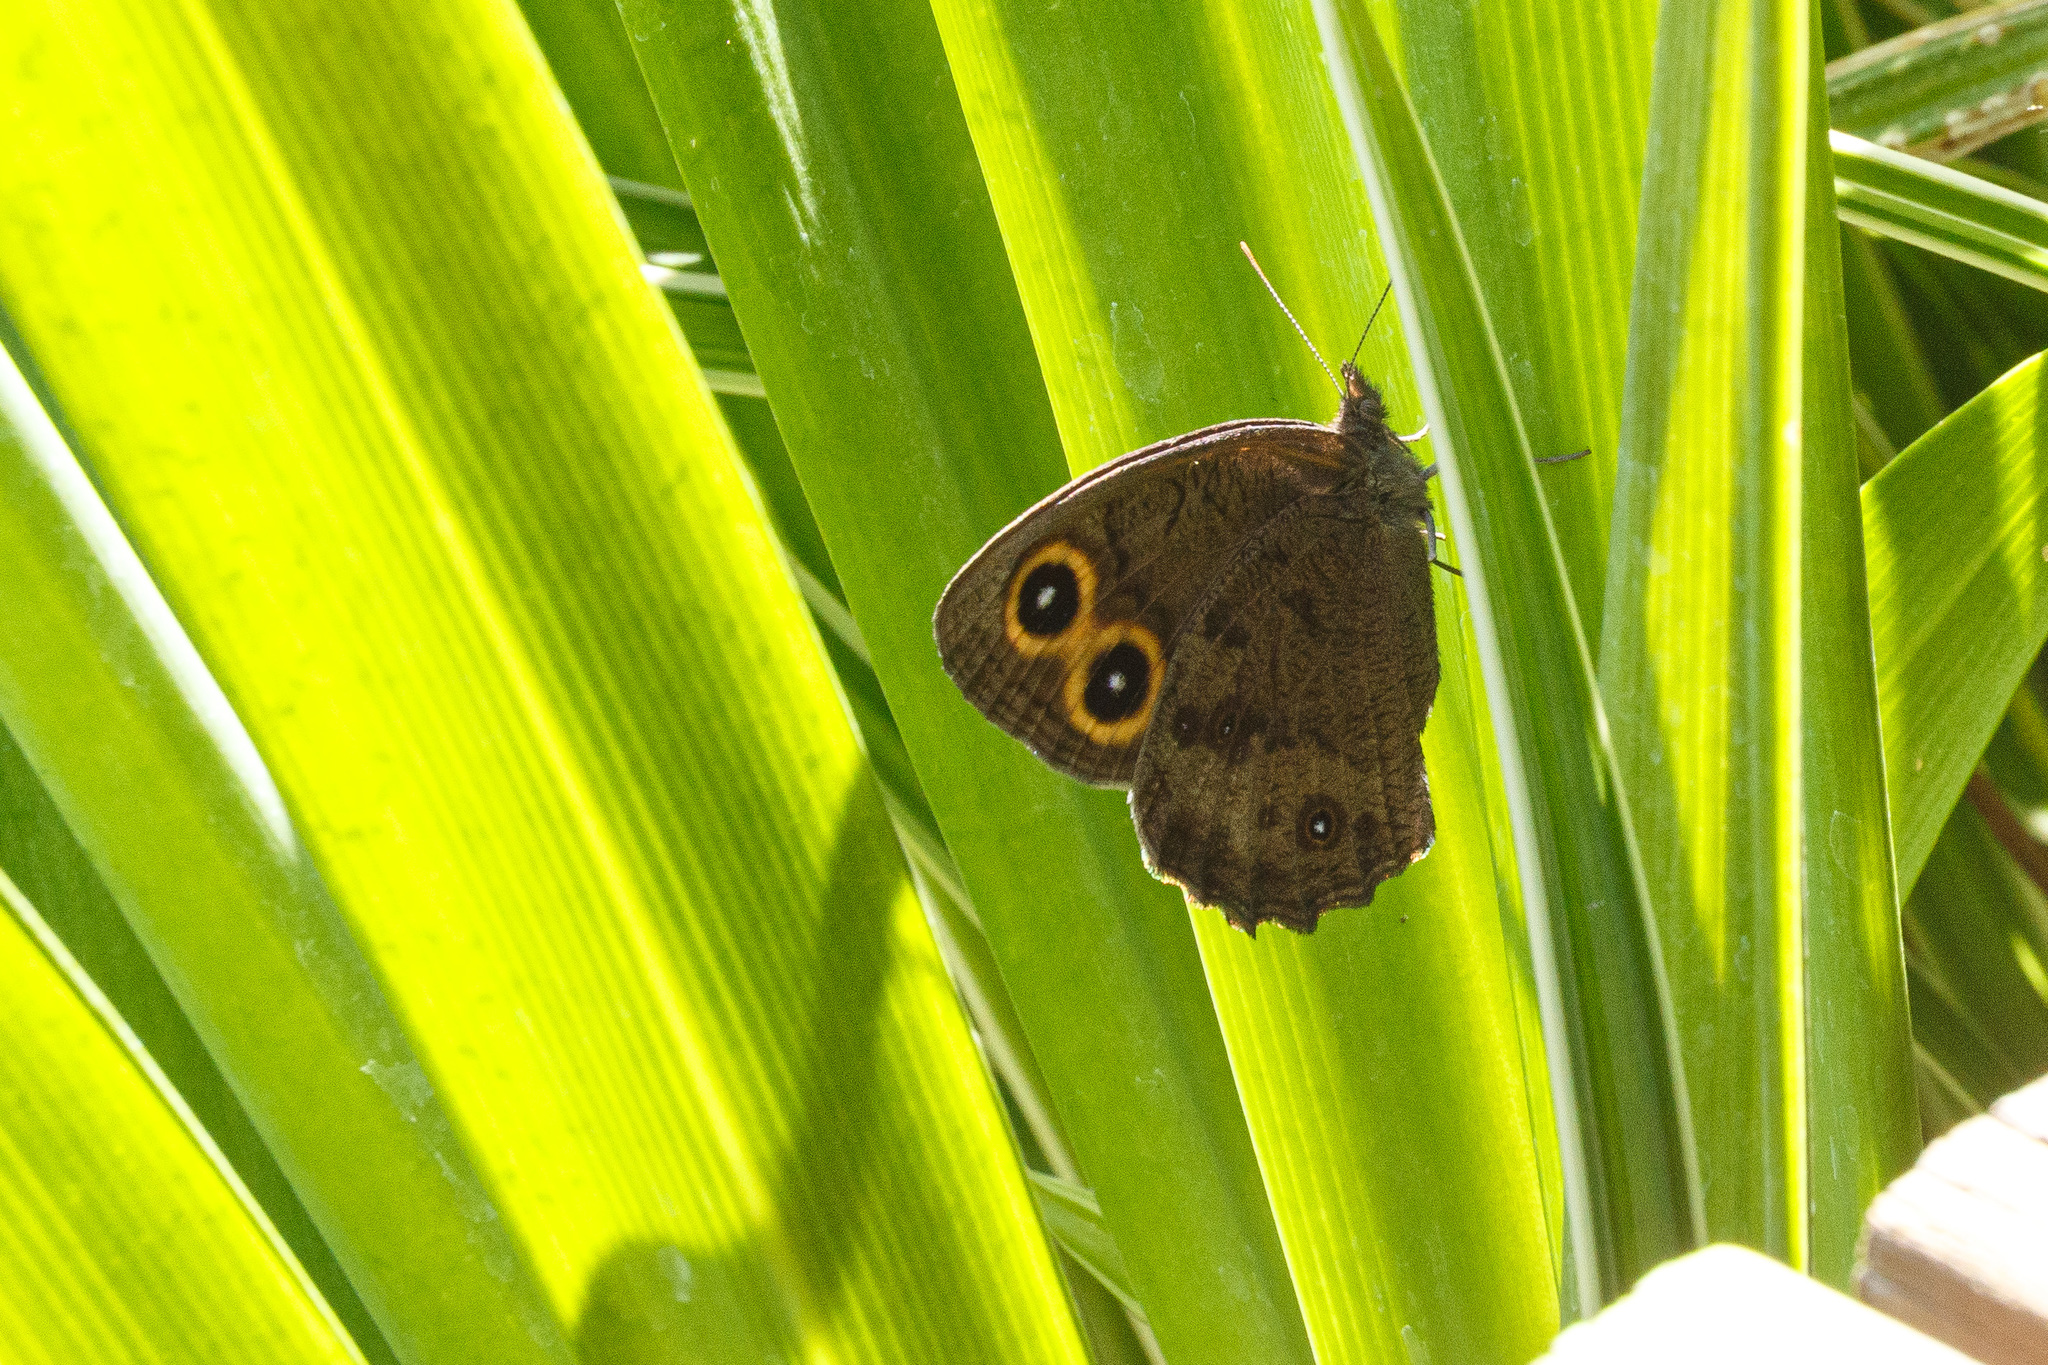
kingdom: Animalia
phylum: Arthropoda
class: Insecta
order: Lepidoptera
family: Nymphalidae
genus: Cercyonis
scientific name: Cercyonis pegala
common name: Common wood-nymph
